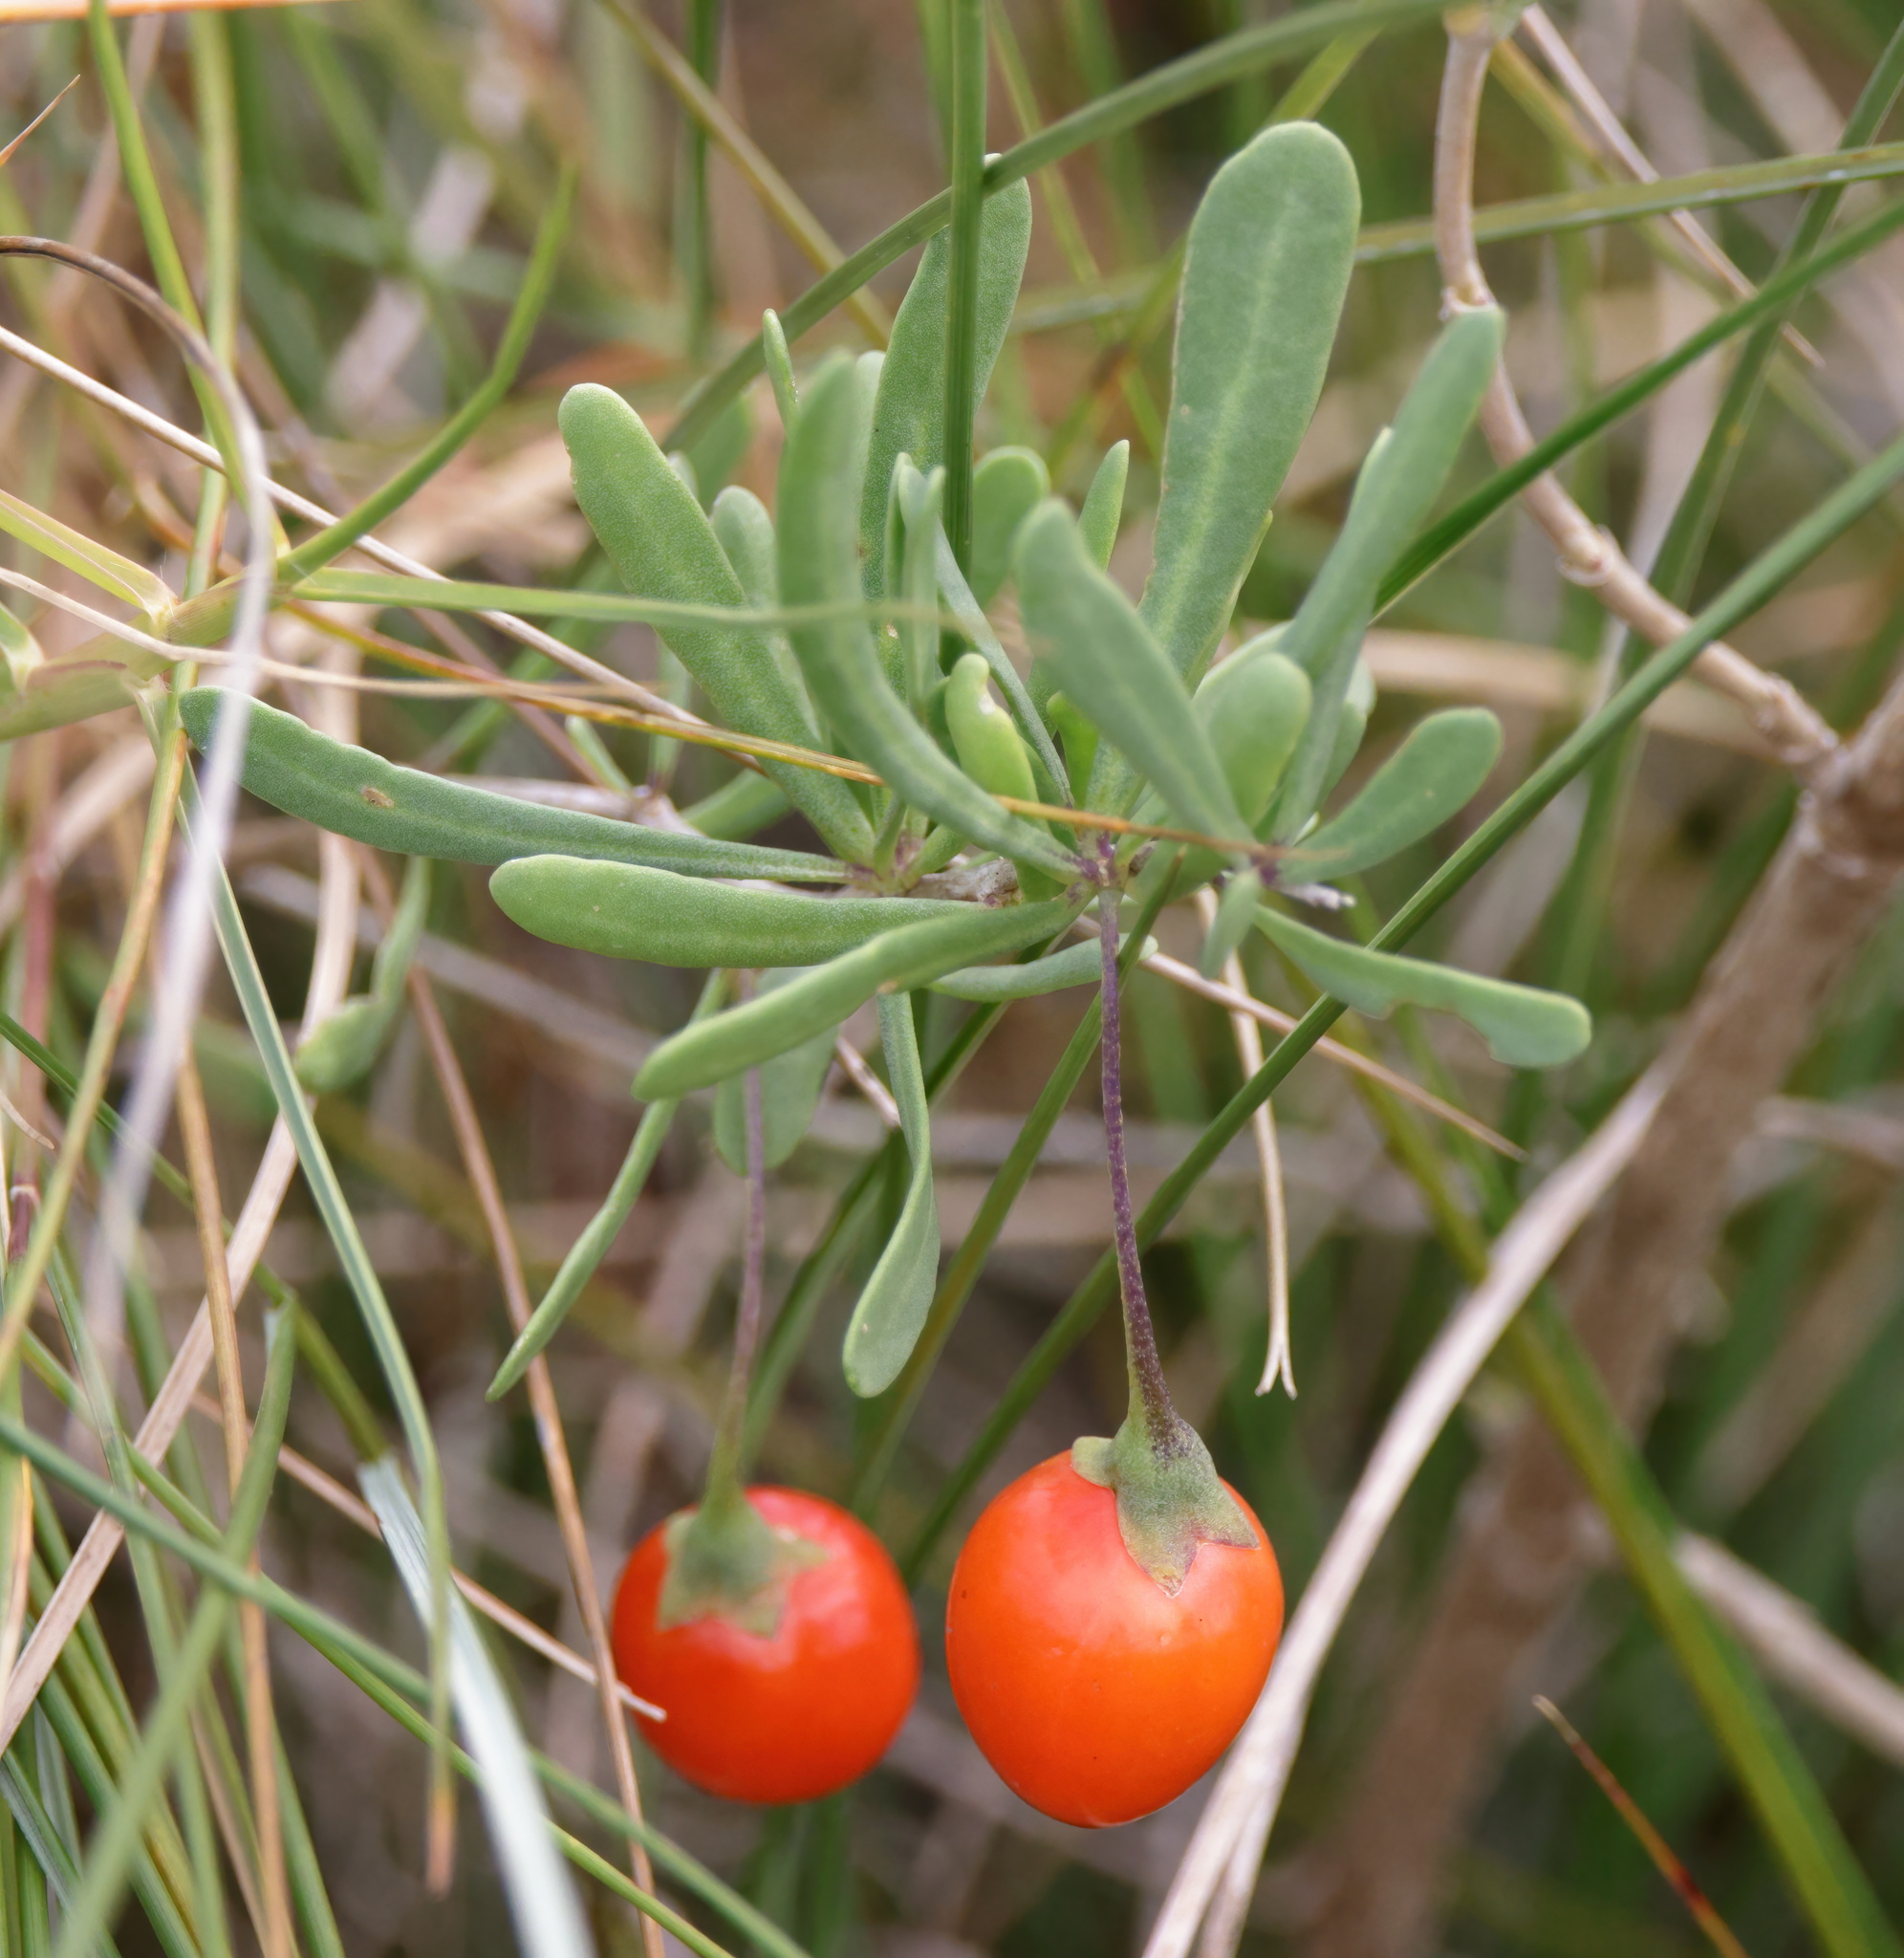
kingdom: Plantae
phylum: Tracheophyta
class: Magnoliopsida
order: Solanales
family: Solanaceae
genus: Lycium
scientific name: Lycium carolinianum
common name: Christmasberry
